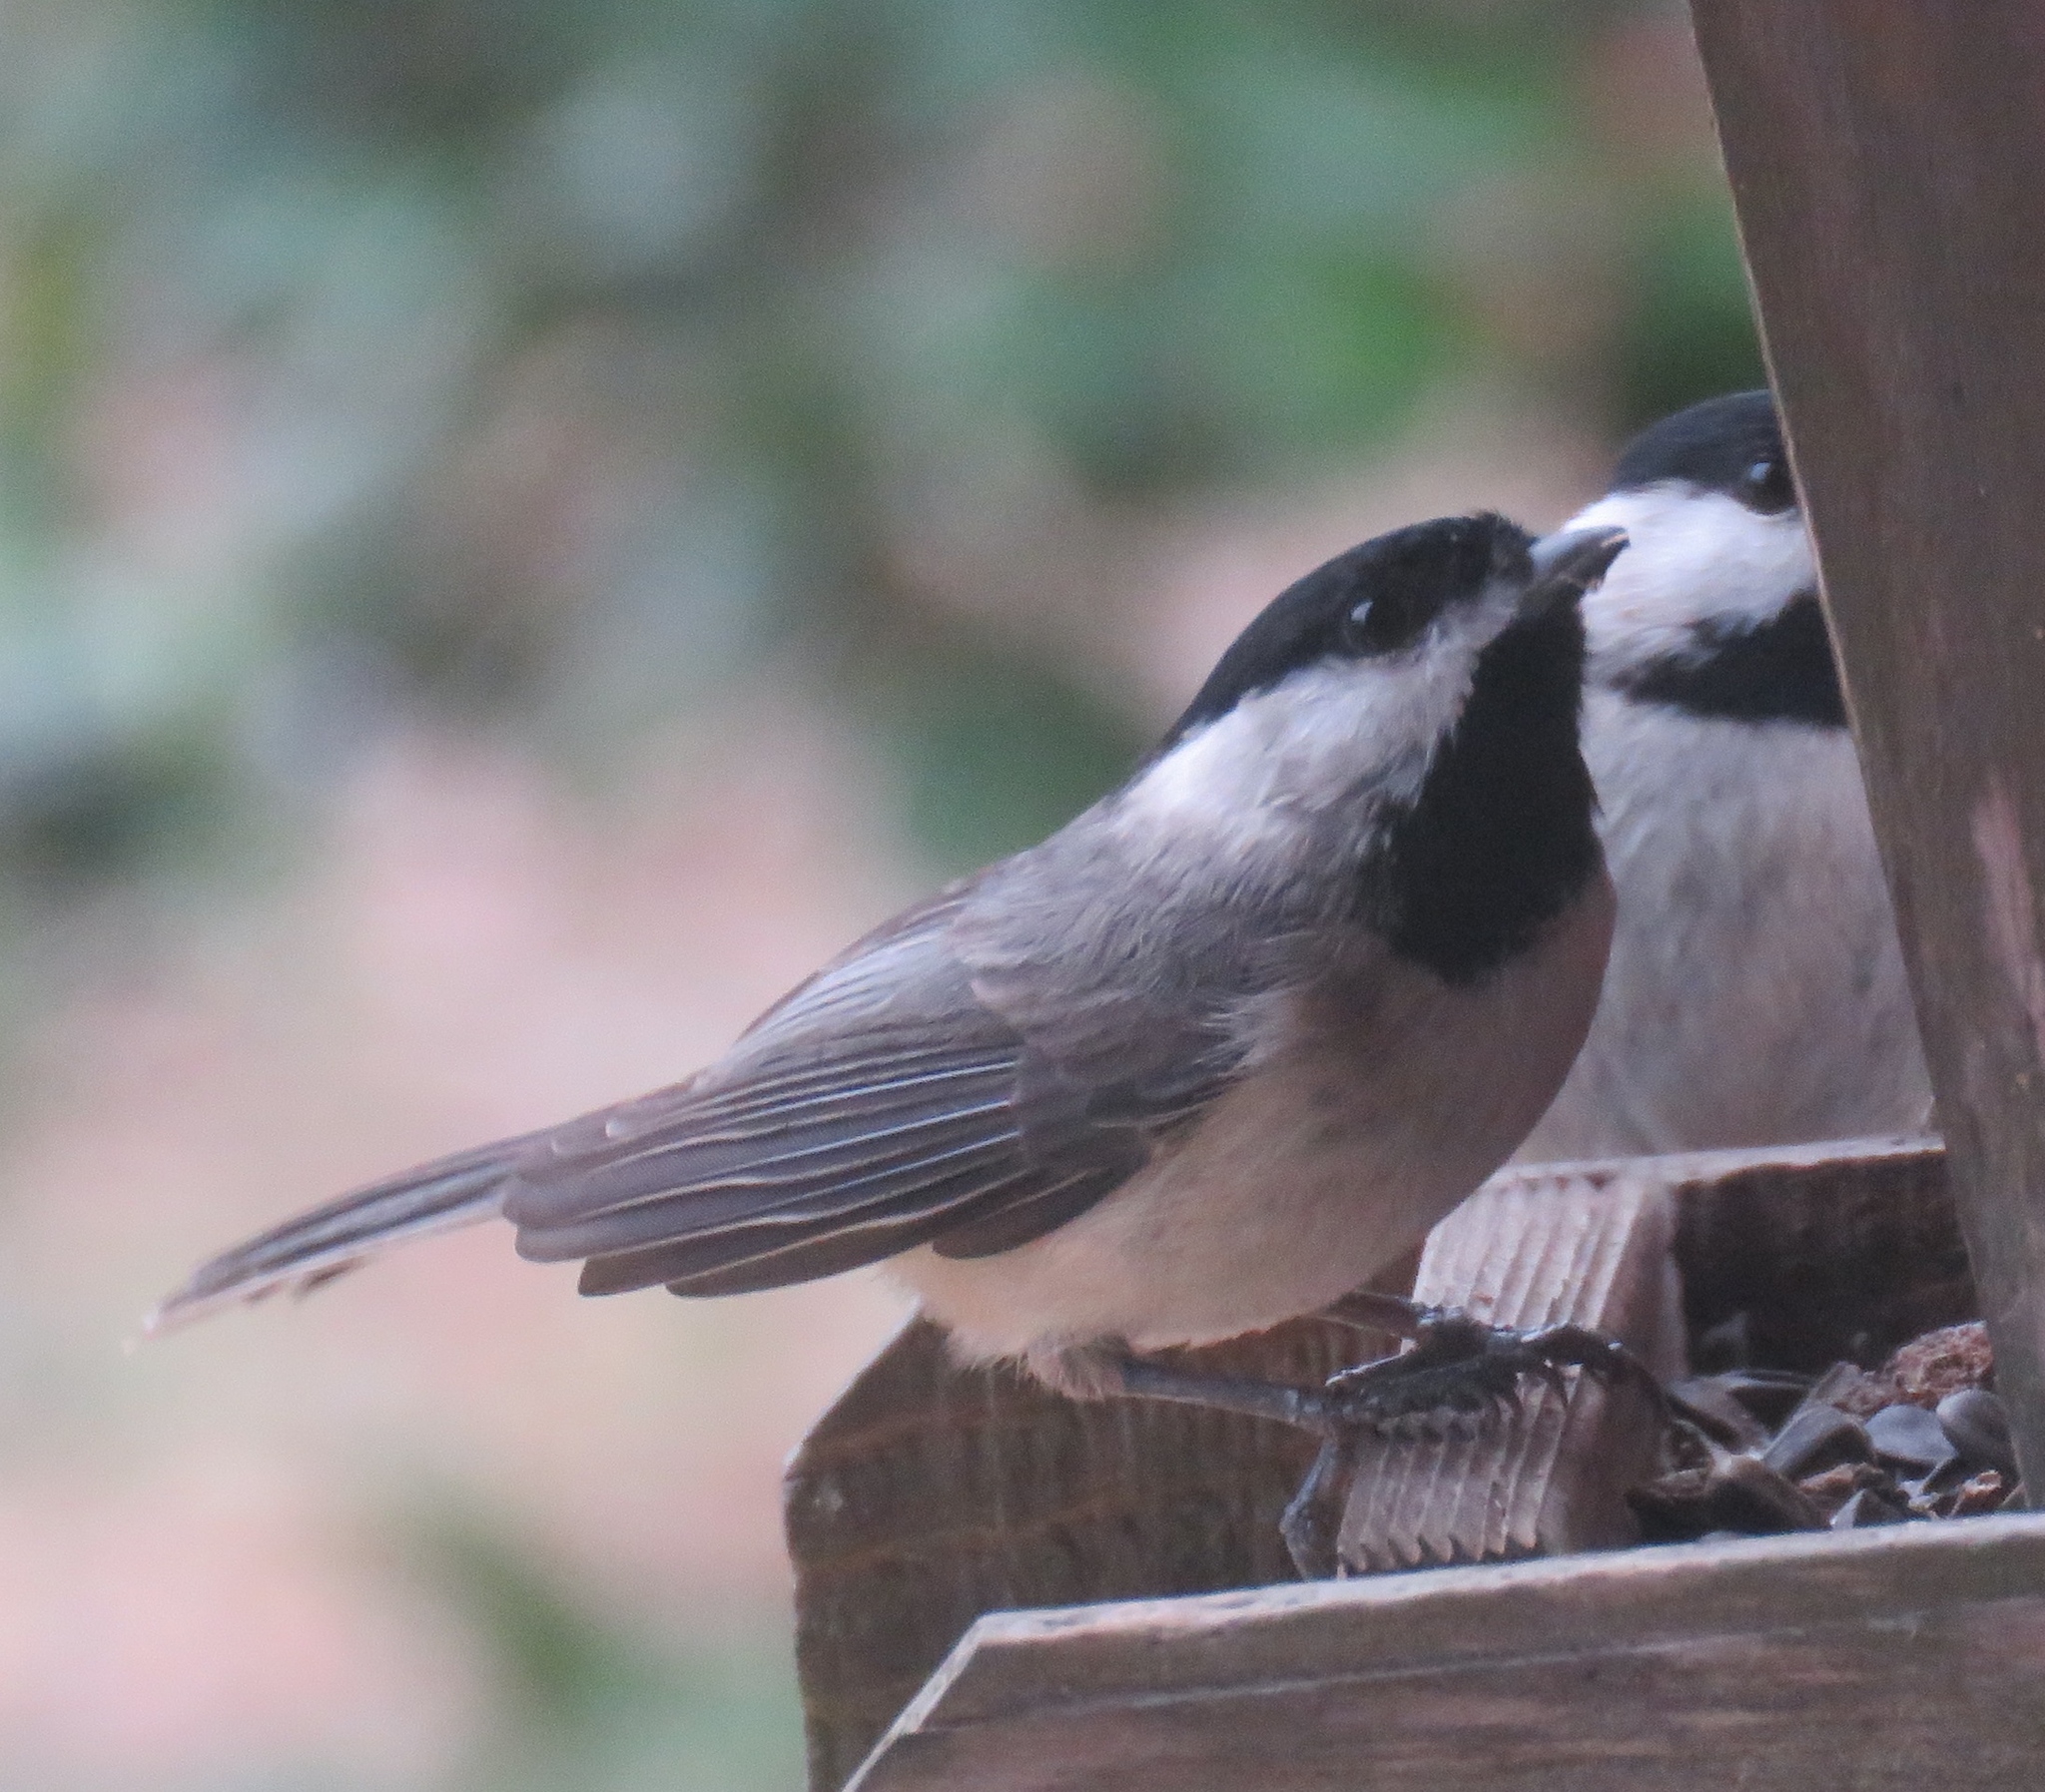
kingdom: Animalia
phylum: Chordata
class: Aves
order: Passeriformes
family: Paridae
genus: Poecile
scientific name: Poecile carolinensis
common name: Carolina chickadee
